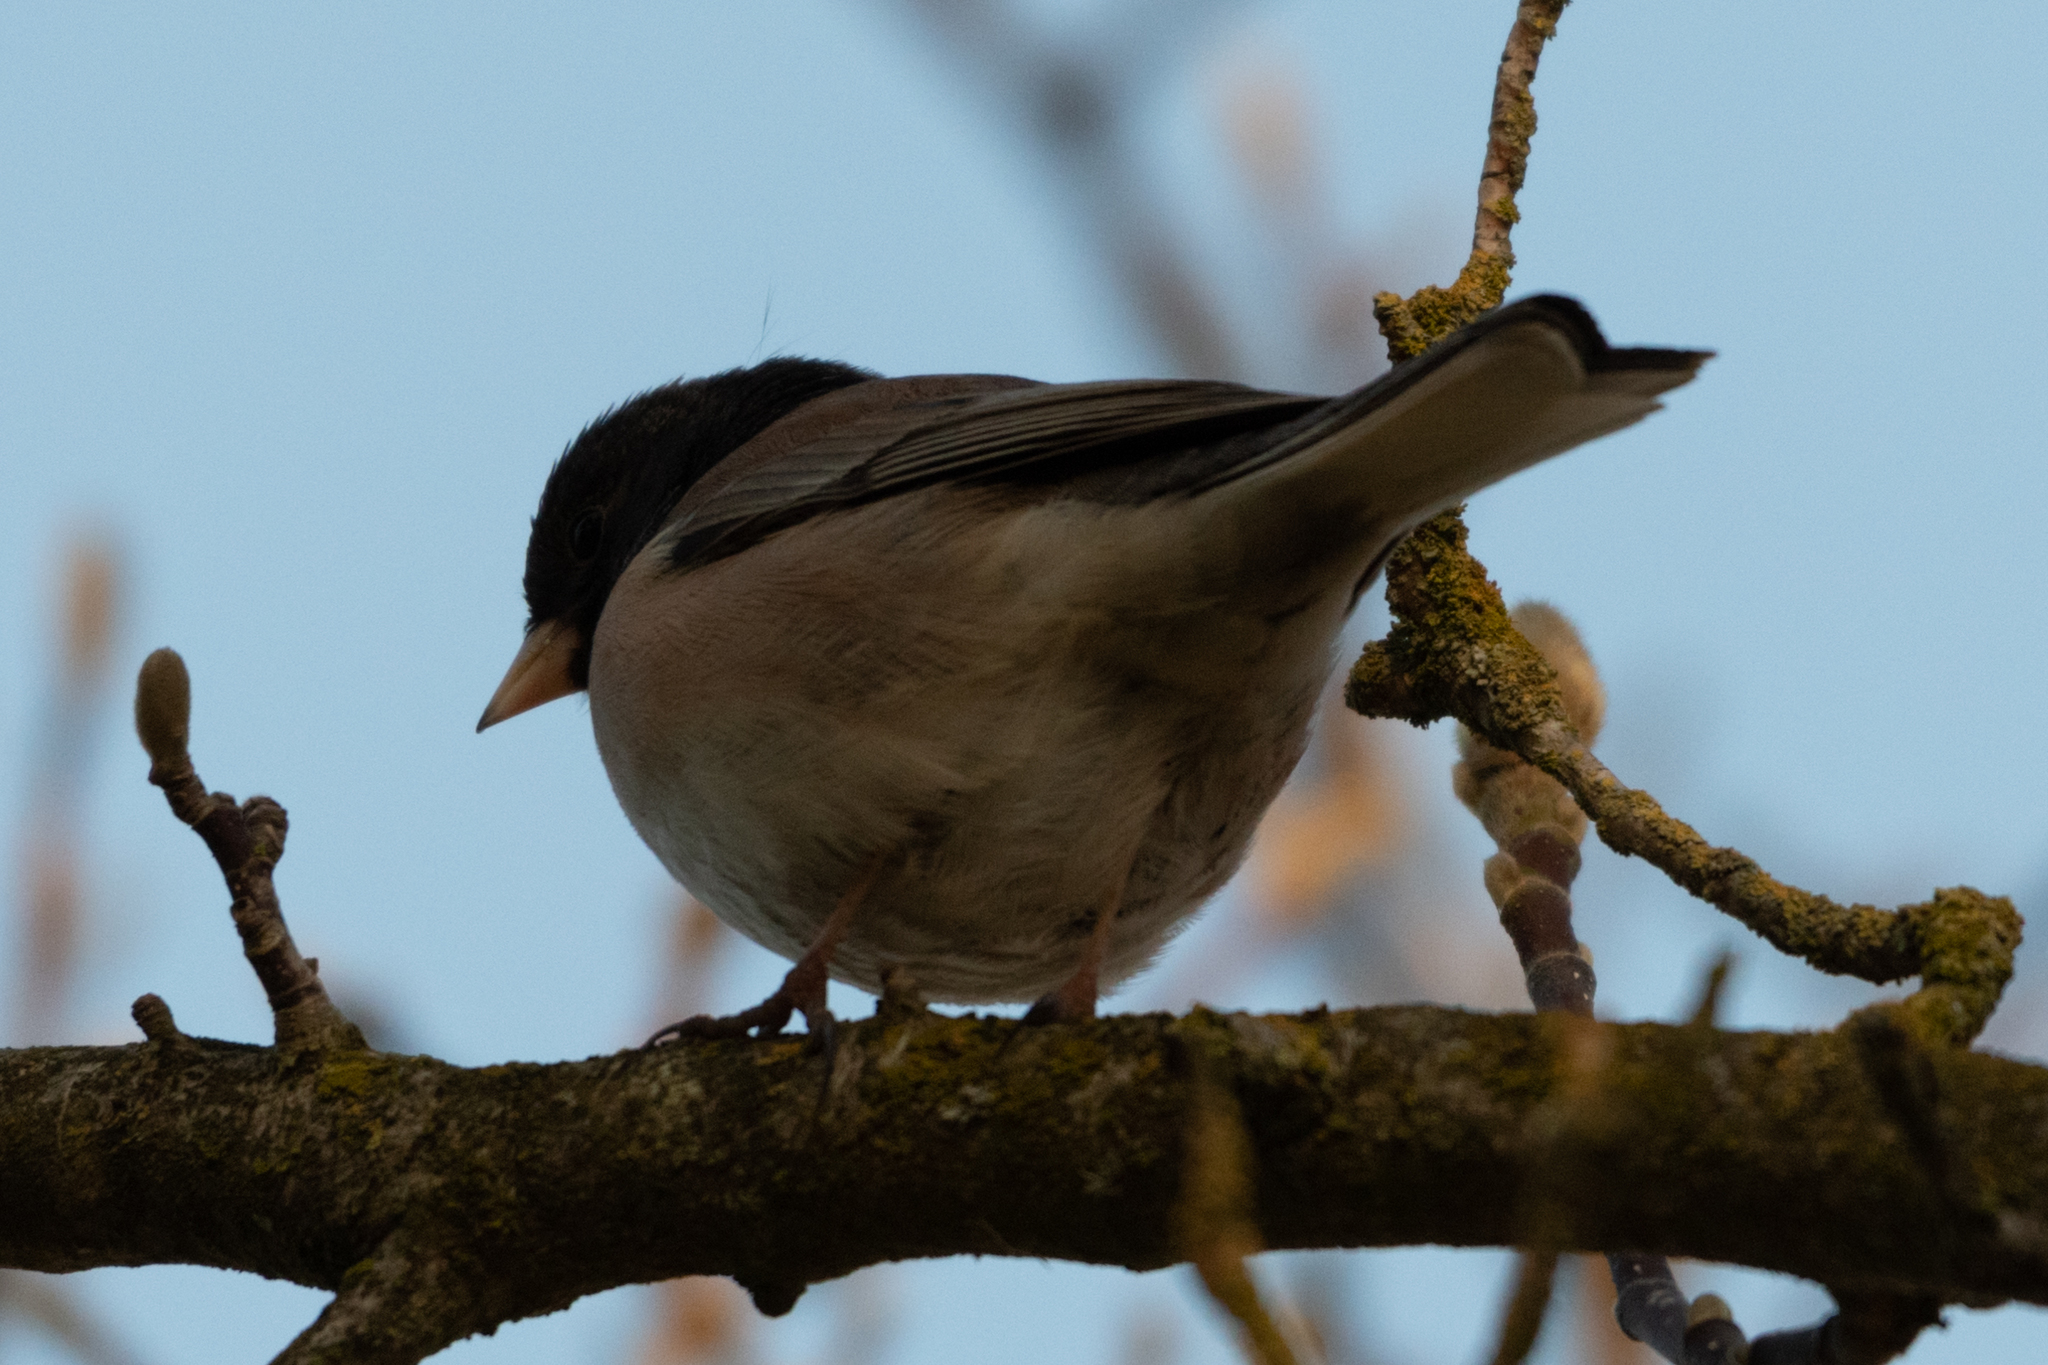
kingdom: Animalia
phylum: Chordata
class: Aves
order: Passeriformes
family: Passerellidae
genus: Junco
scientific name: Junco hyemalis
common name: Dark-eyed junco
